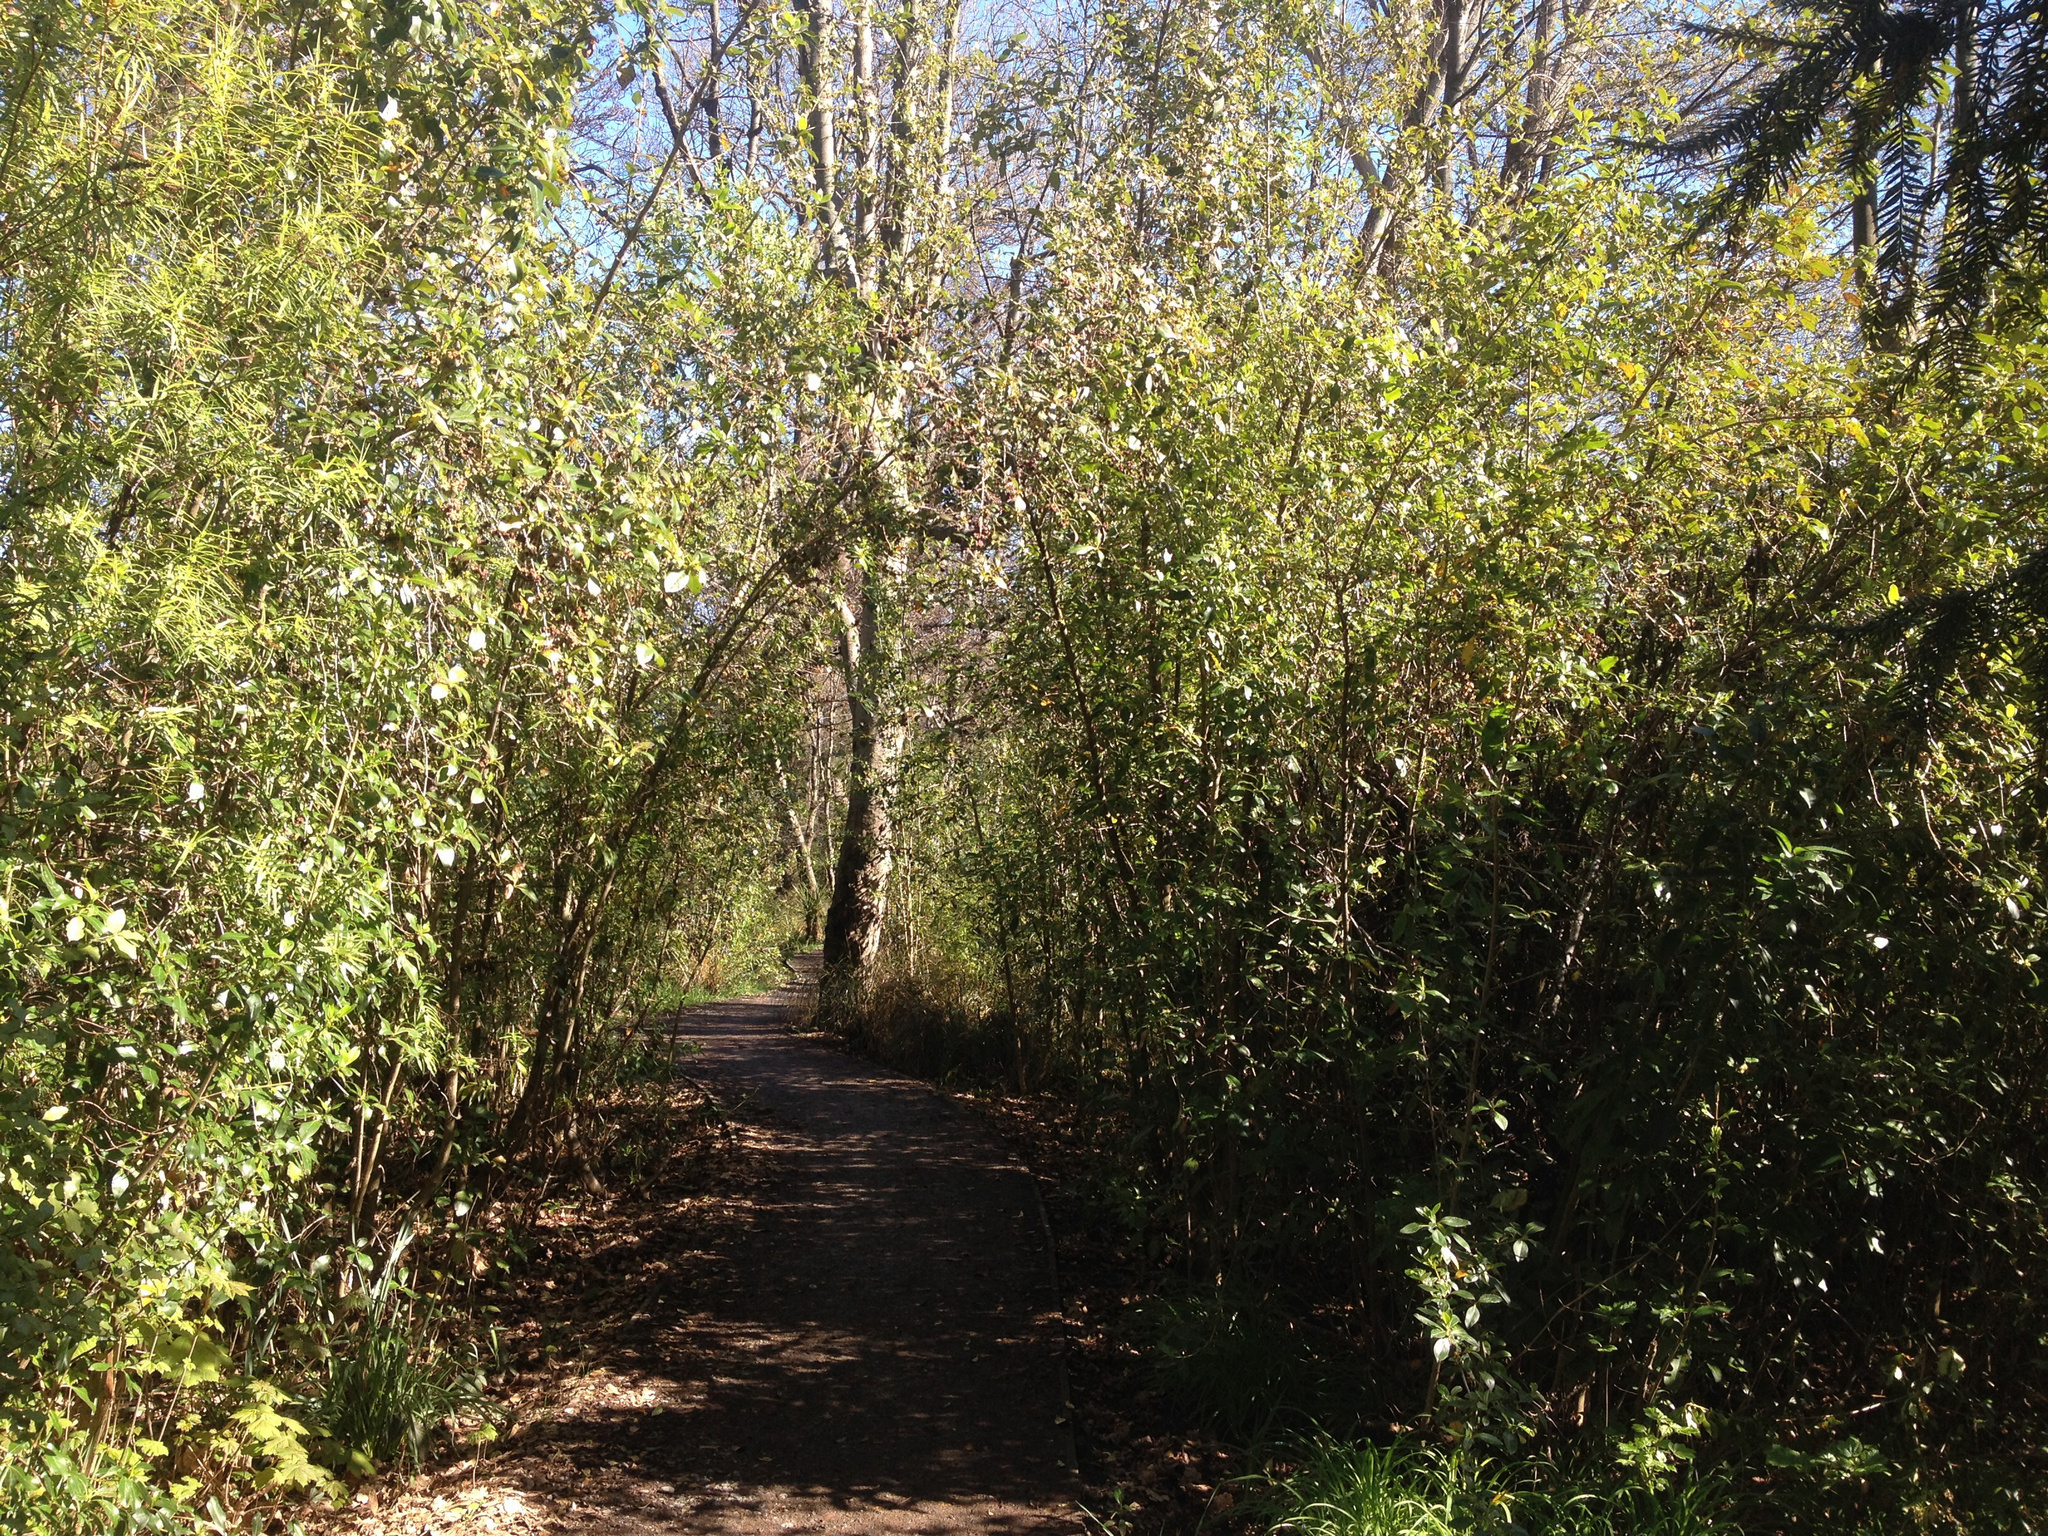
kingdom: Plantae
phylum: Tracheophyta
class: Magnoliopsida
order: Gentianales
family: Rubiaceae
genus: Coprosma
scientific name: Coprosma robusta
